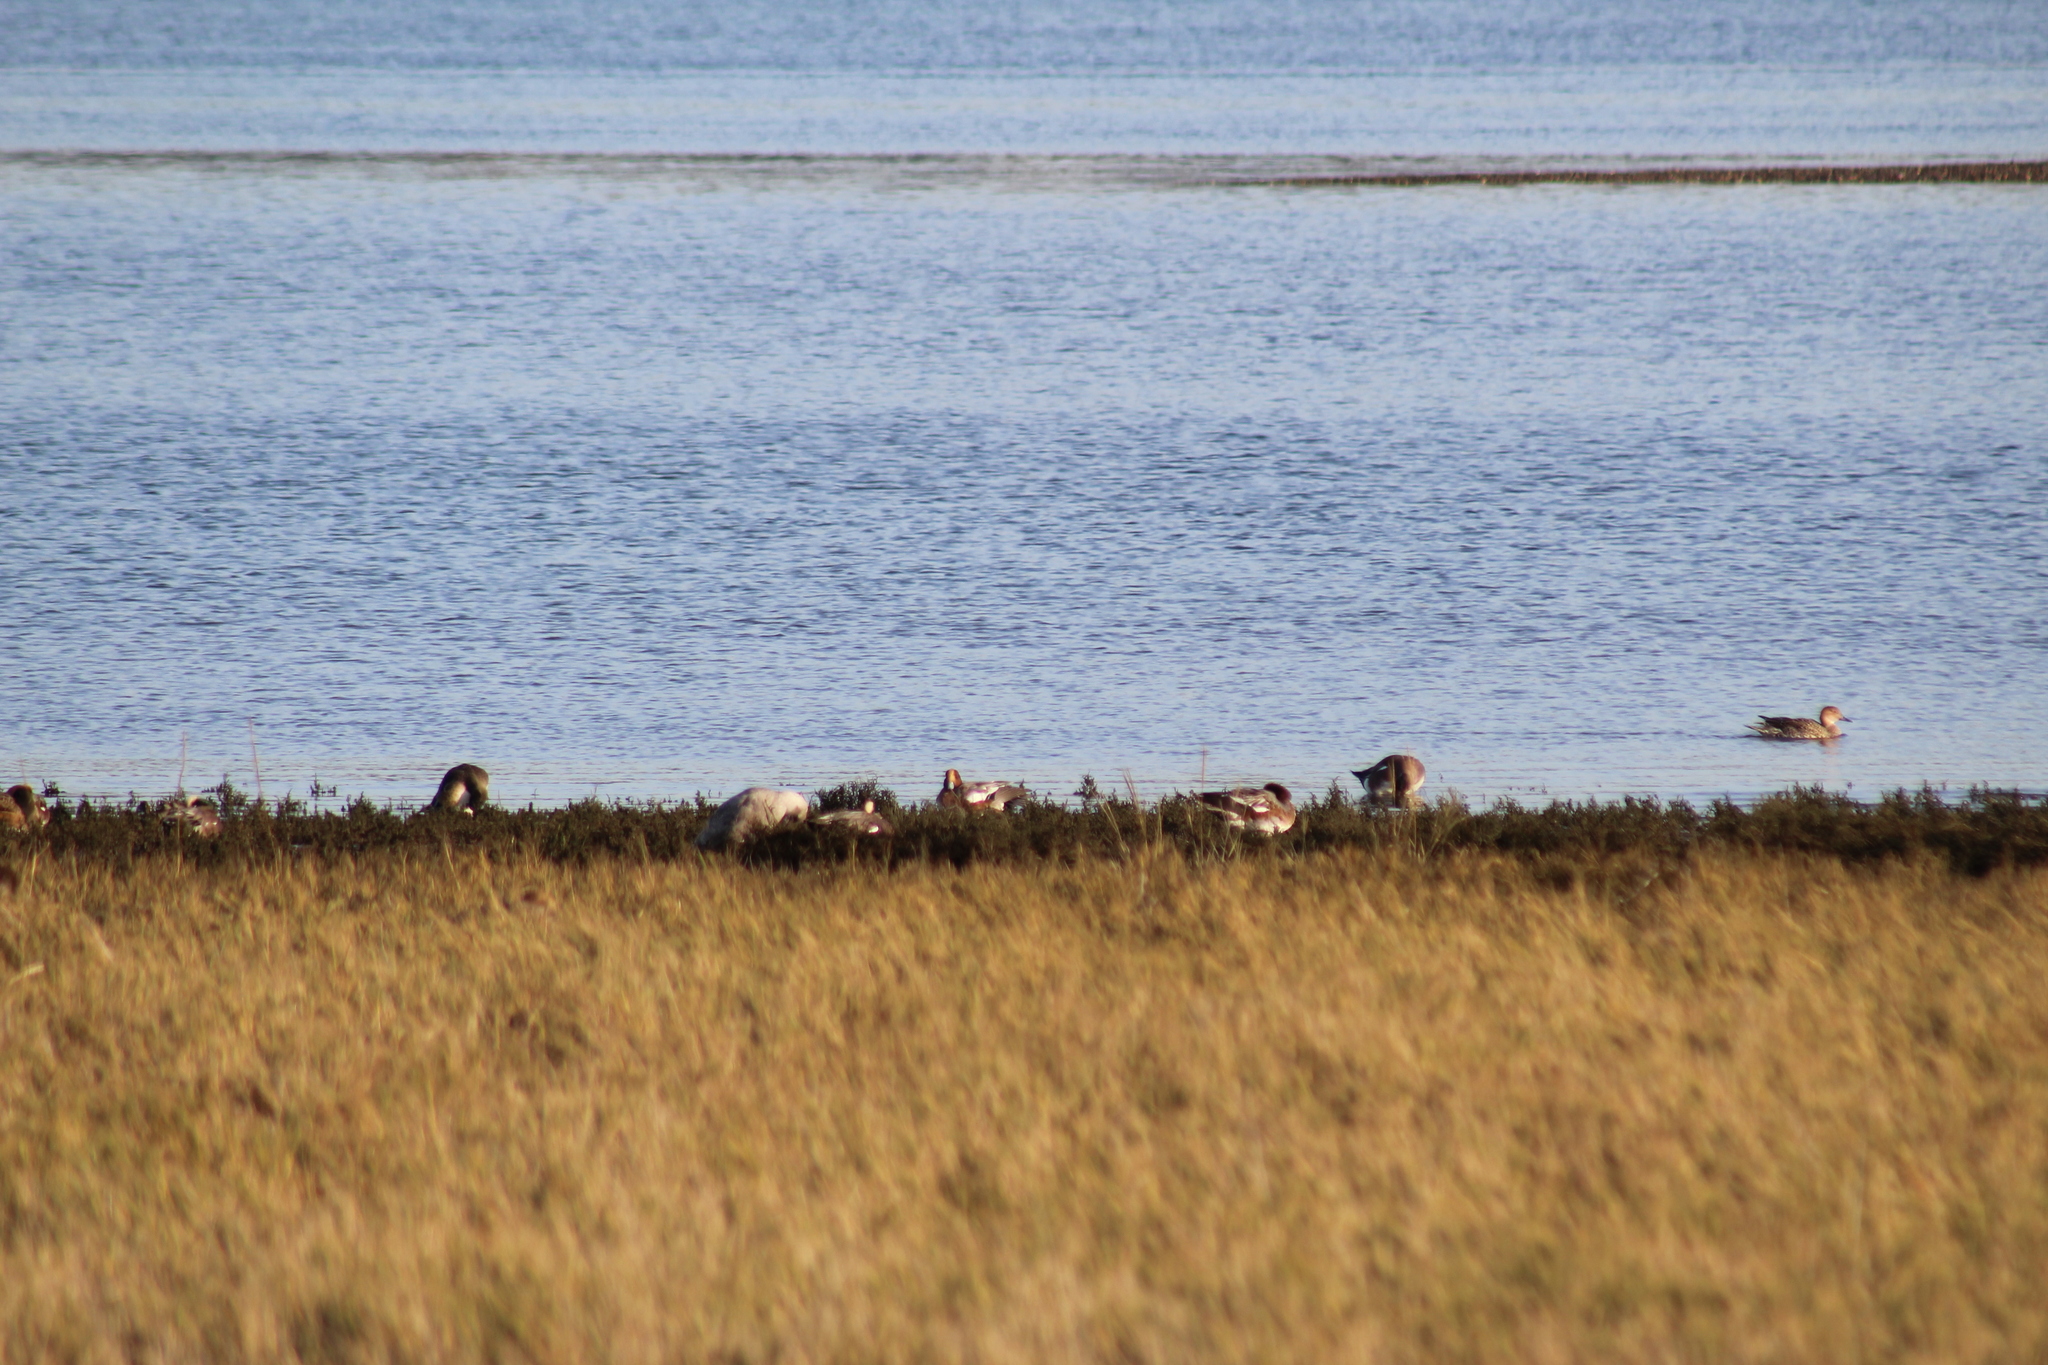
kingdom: Animalia
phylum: Chordata
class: Aves
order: Anseriformes
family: Anatidae
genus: Mareca
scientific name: Mareca penelope
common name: Eurasian wigeon
